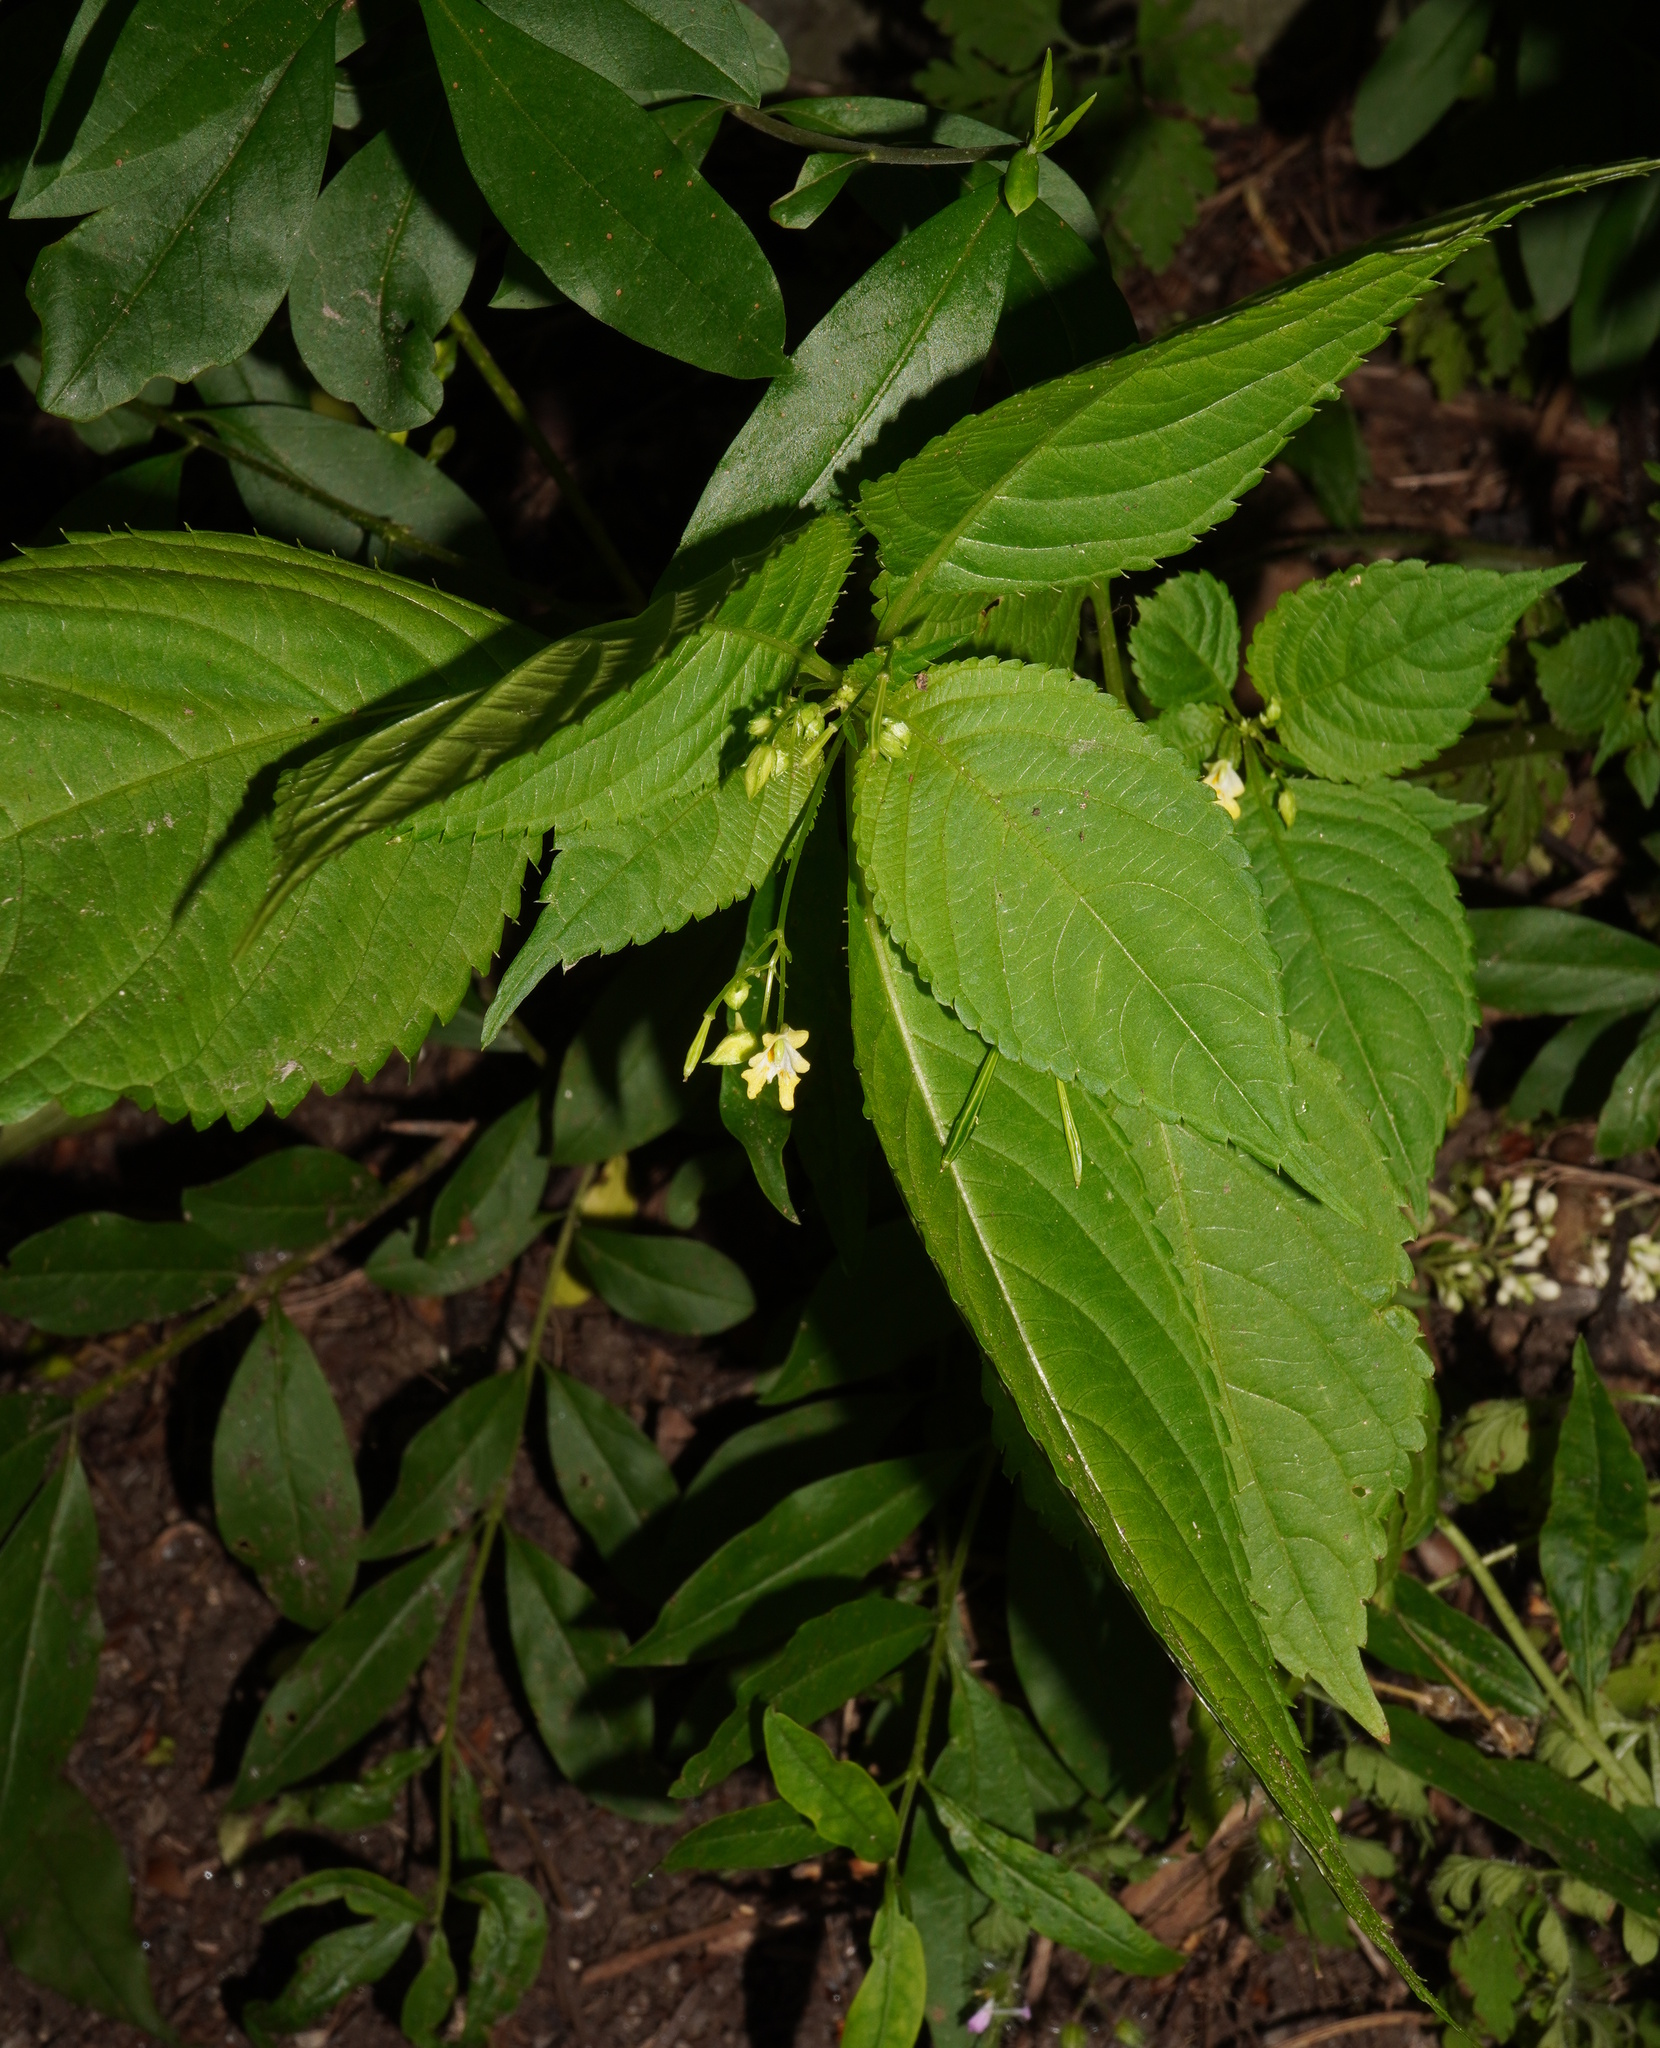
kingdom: Plantae
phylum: Tracheophyta
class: Magnoliopsida
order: Ericales
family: Balsaminaceae
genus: Impatiens
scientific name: Impatiens parviflora
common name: Small balsam
